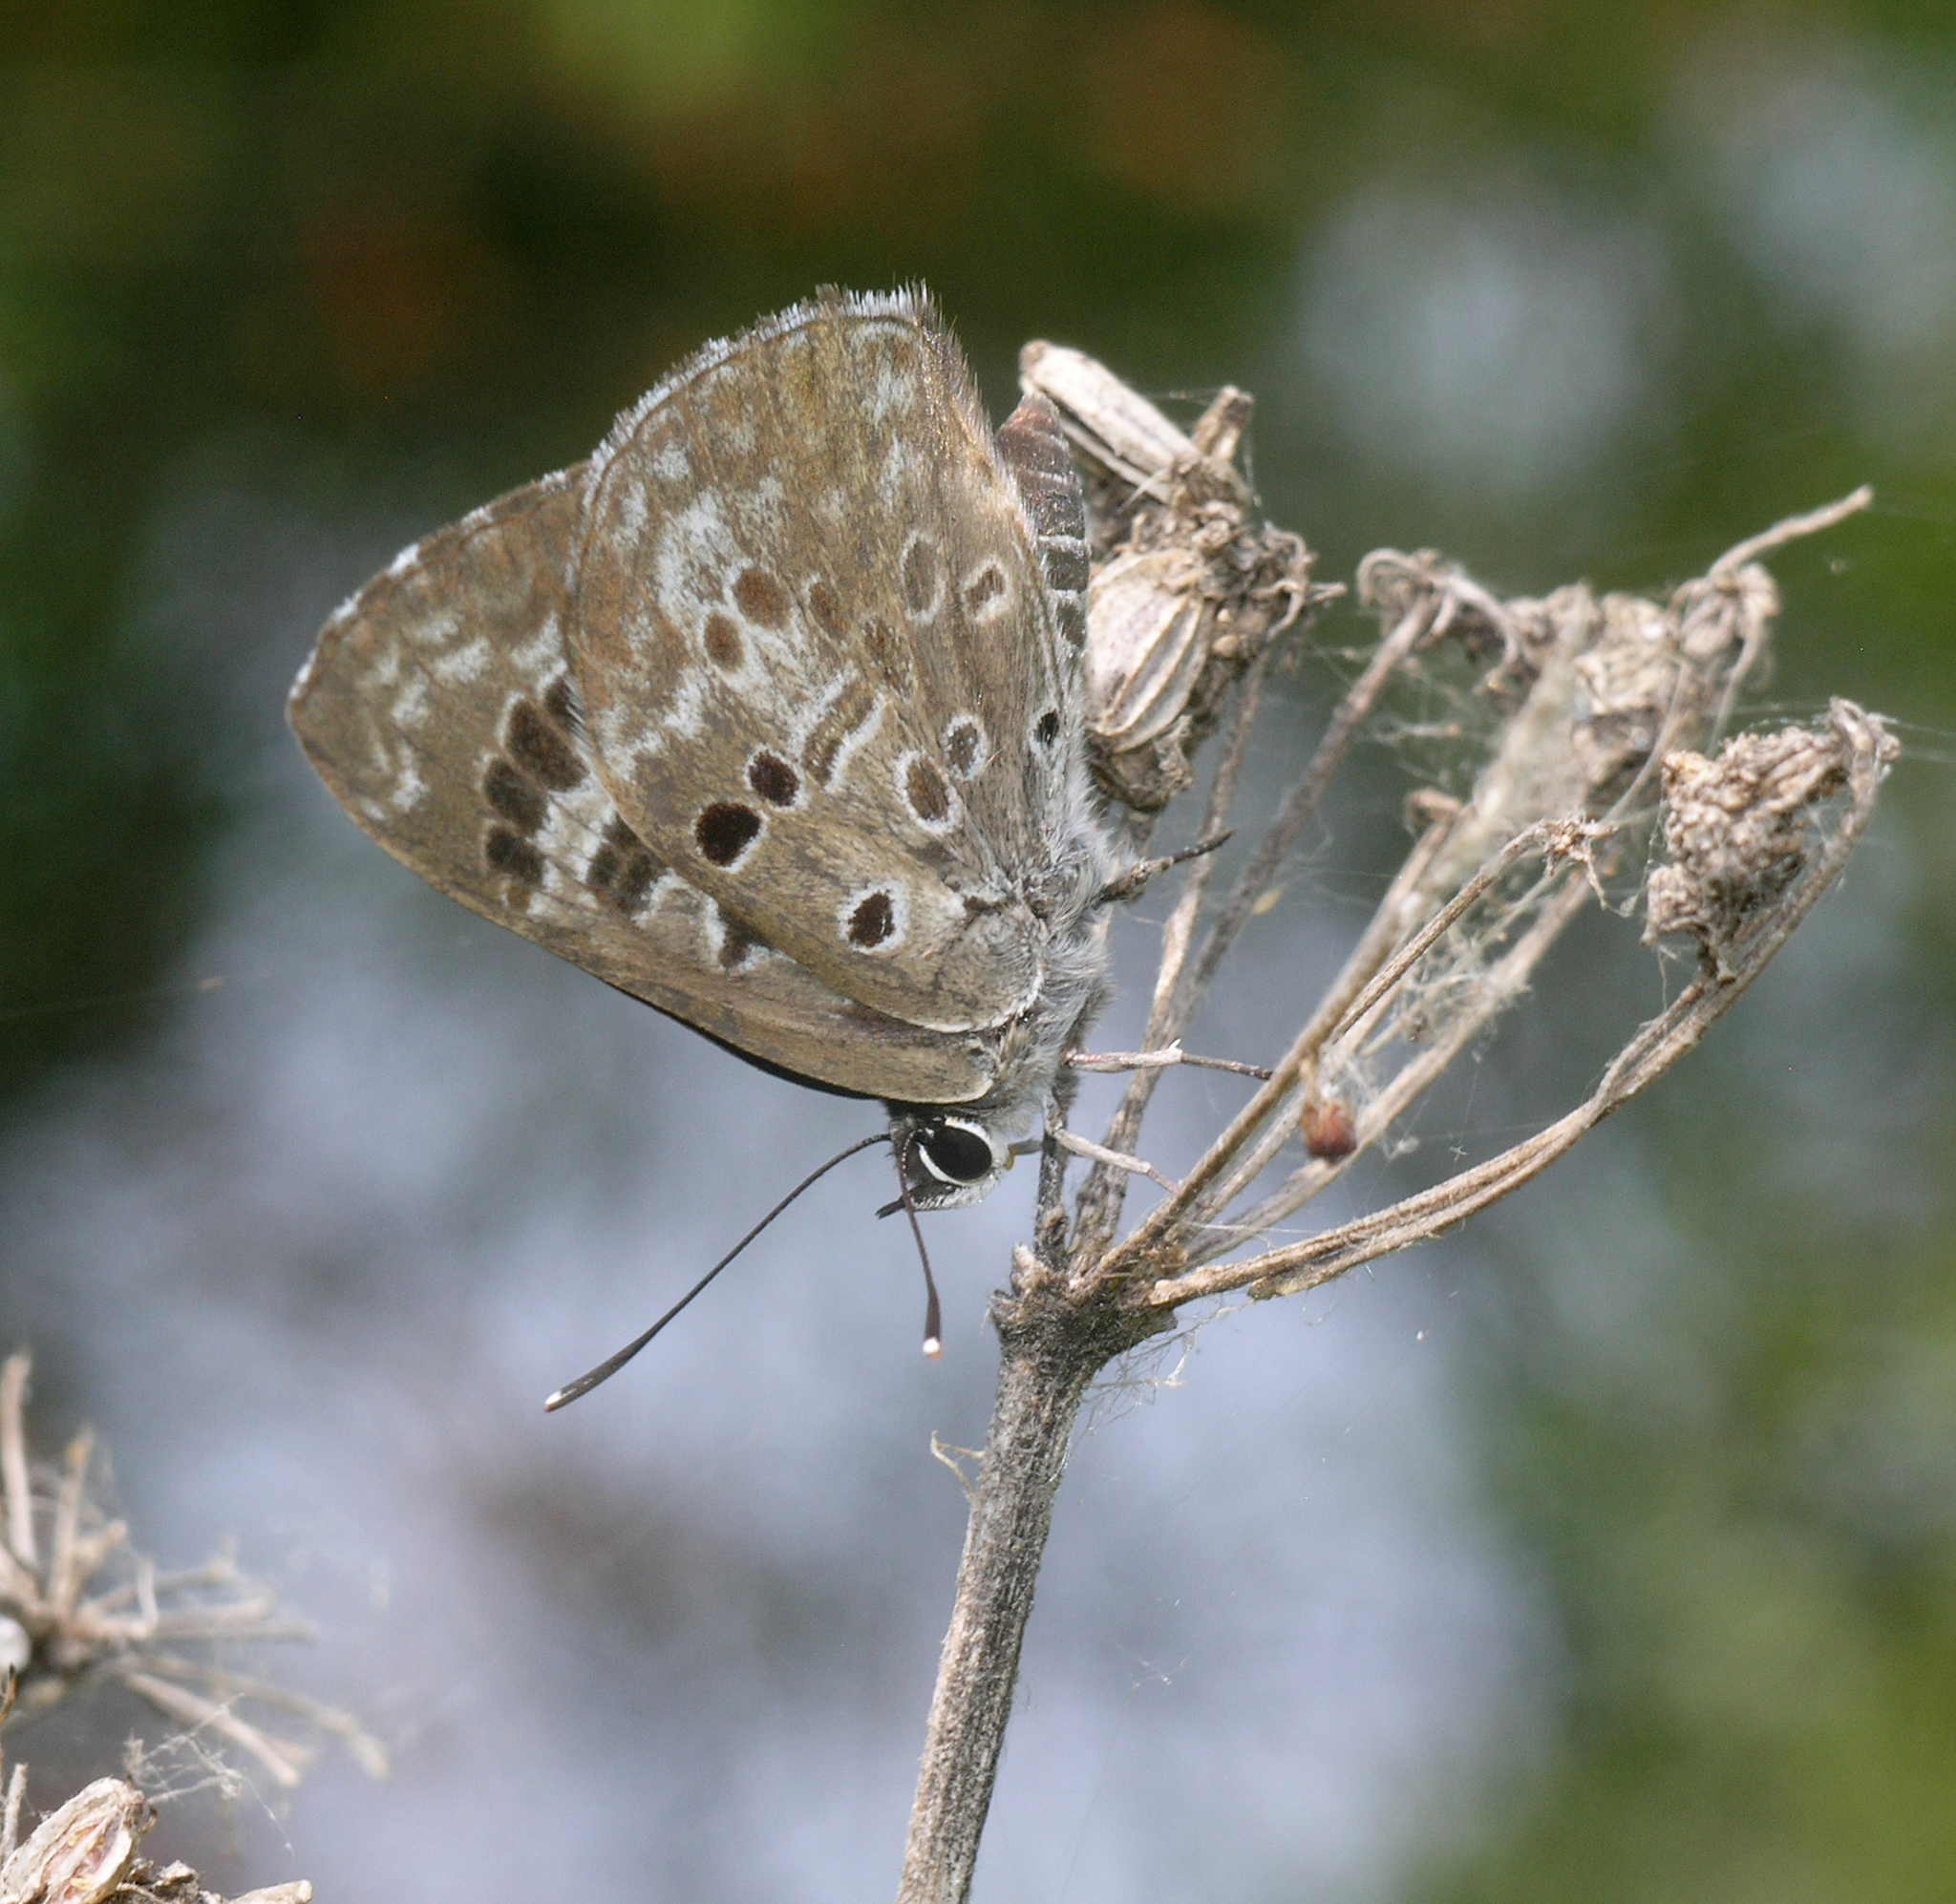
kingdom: Animalia
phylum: Arthropoda
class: Insecta
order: Lepidoptera
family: Lycaenidae
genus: Niphanda
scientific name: Niphanda fusca
